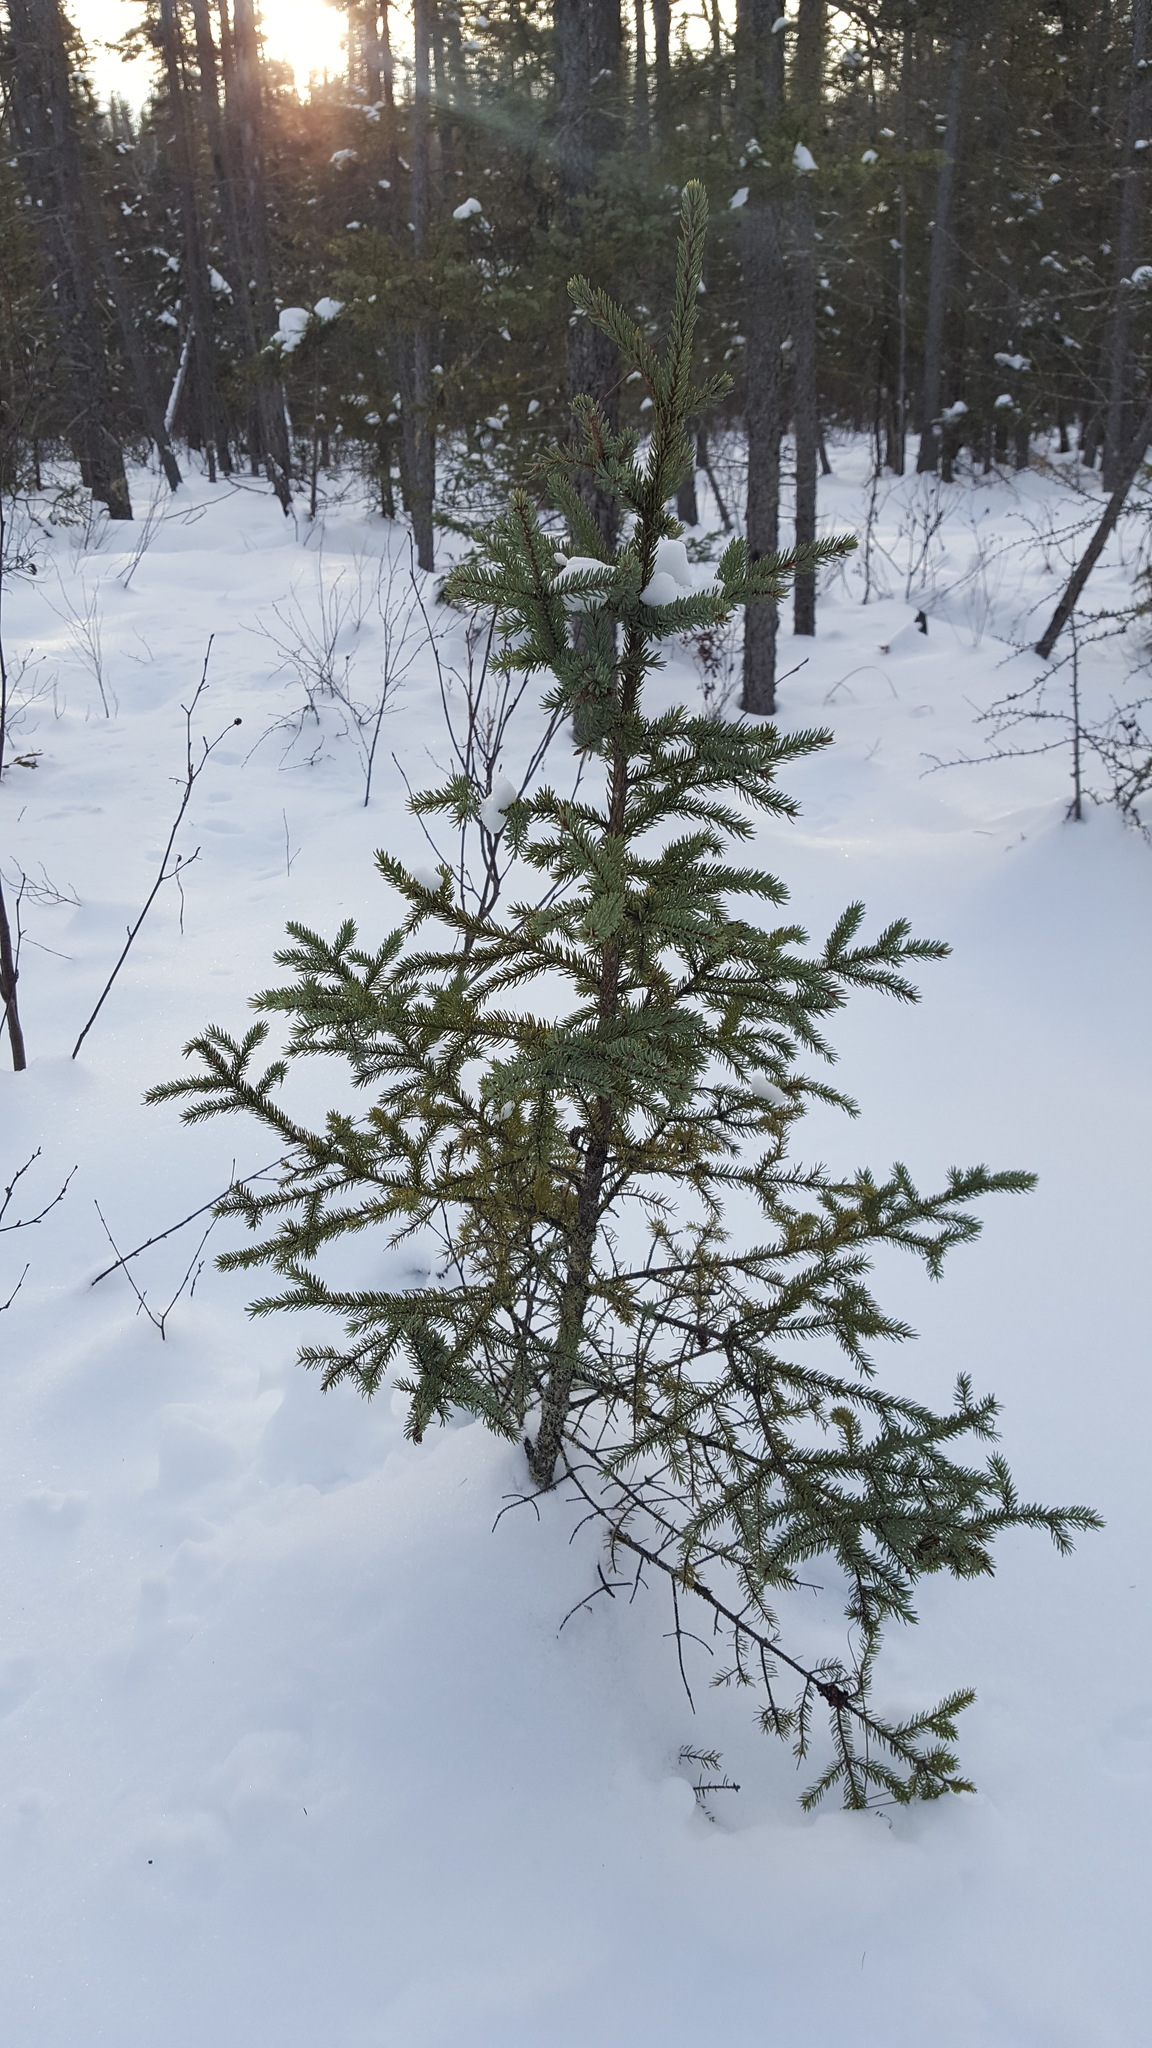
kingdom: Plantae
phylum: Tracheophyta
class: Pinopsida
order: Pinales
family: Pinaceae
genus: Picea
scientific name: Picea mariana
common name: Black spruce
